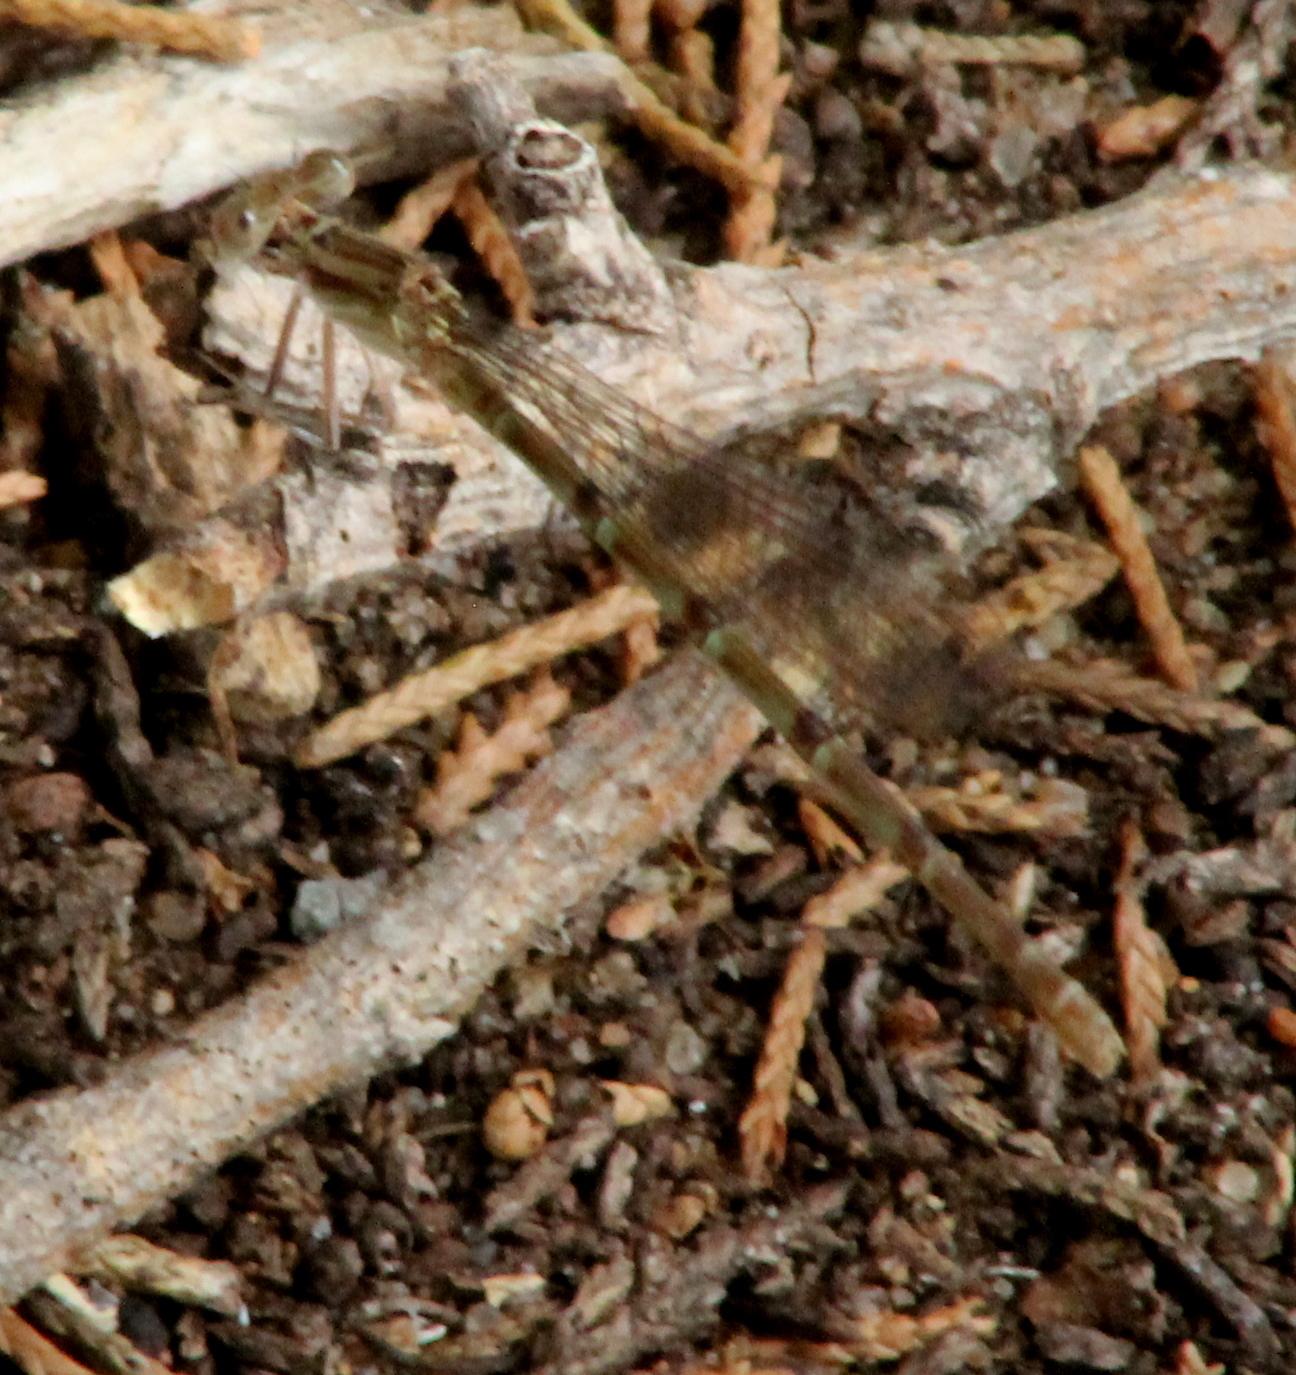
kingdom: Animalia
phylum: Arthropoda
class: Insecta
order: Odonata
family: Coenagrionidae
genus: Argia
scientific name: Argia sedula
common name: Blue-ringed dancer
